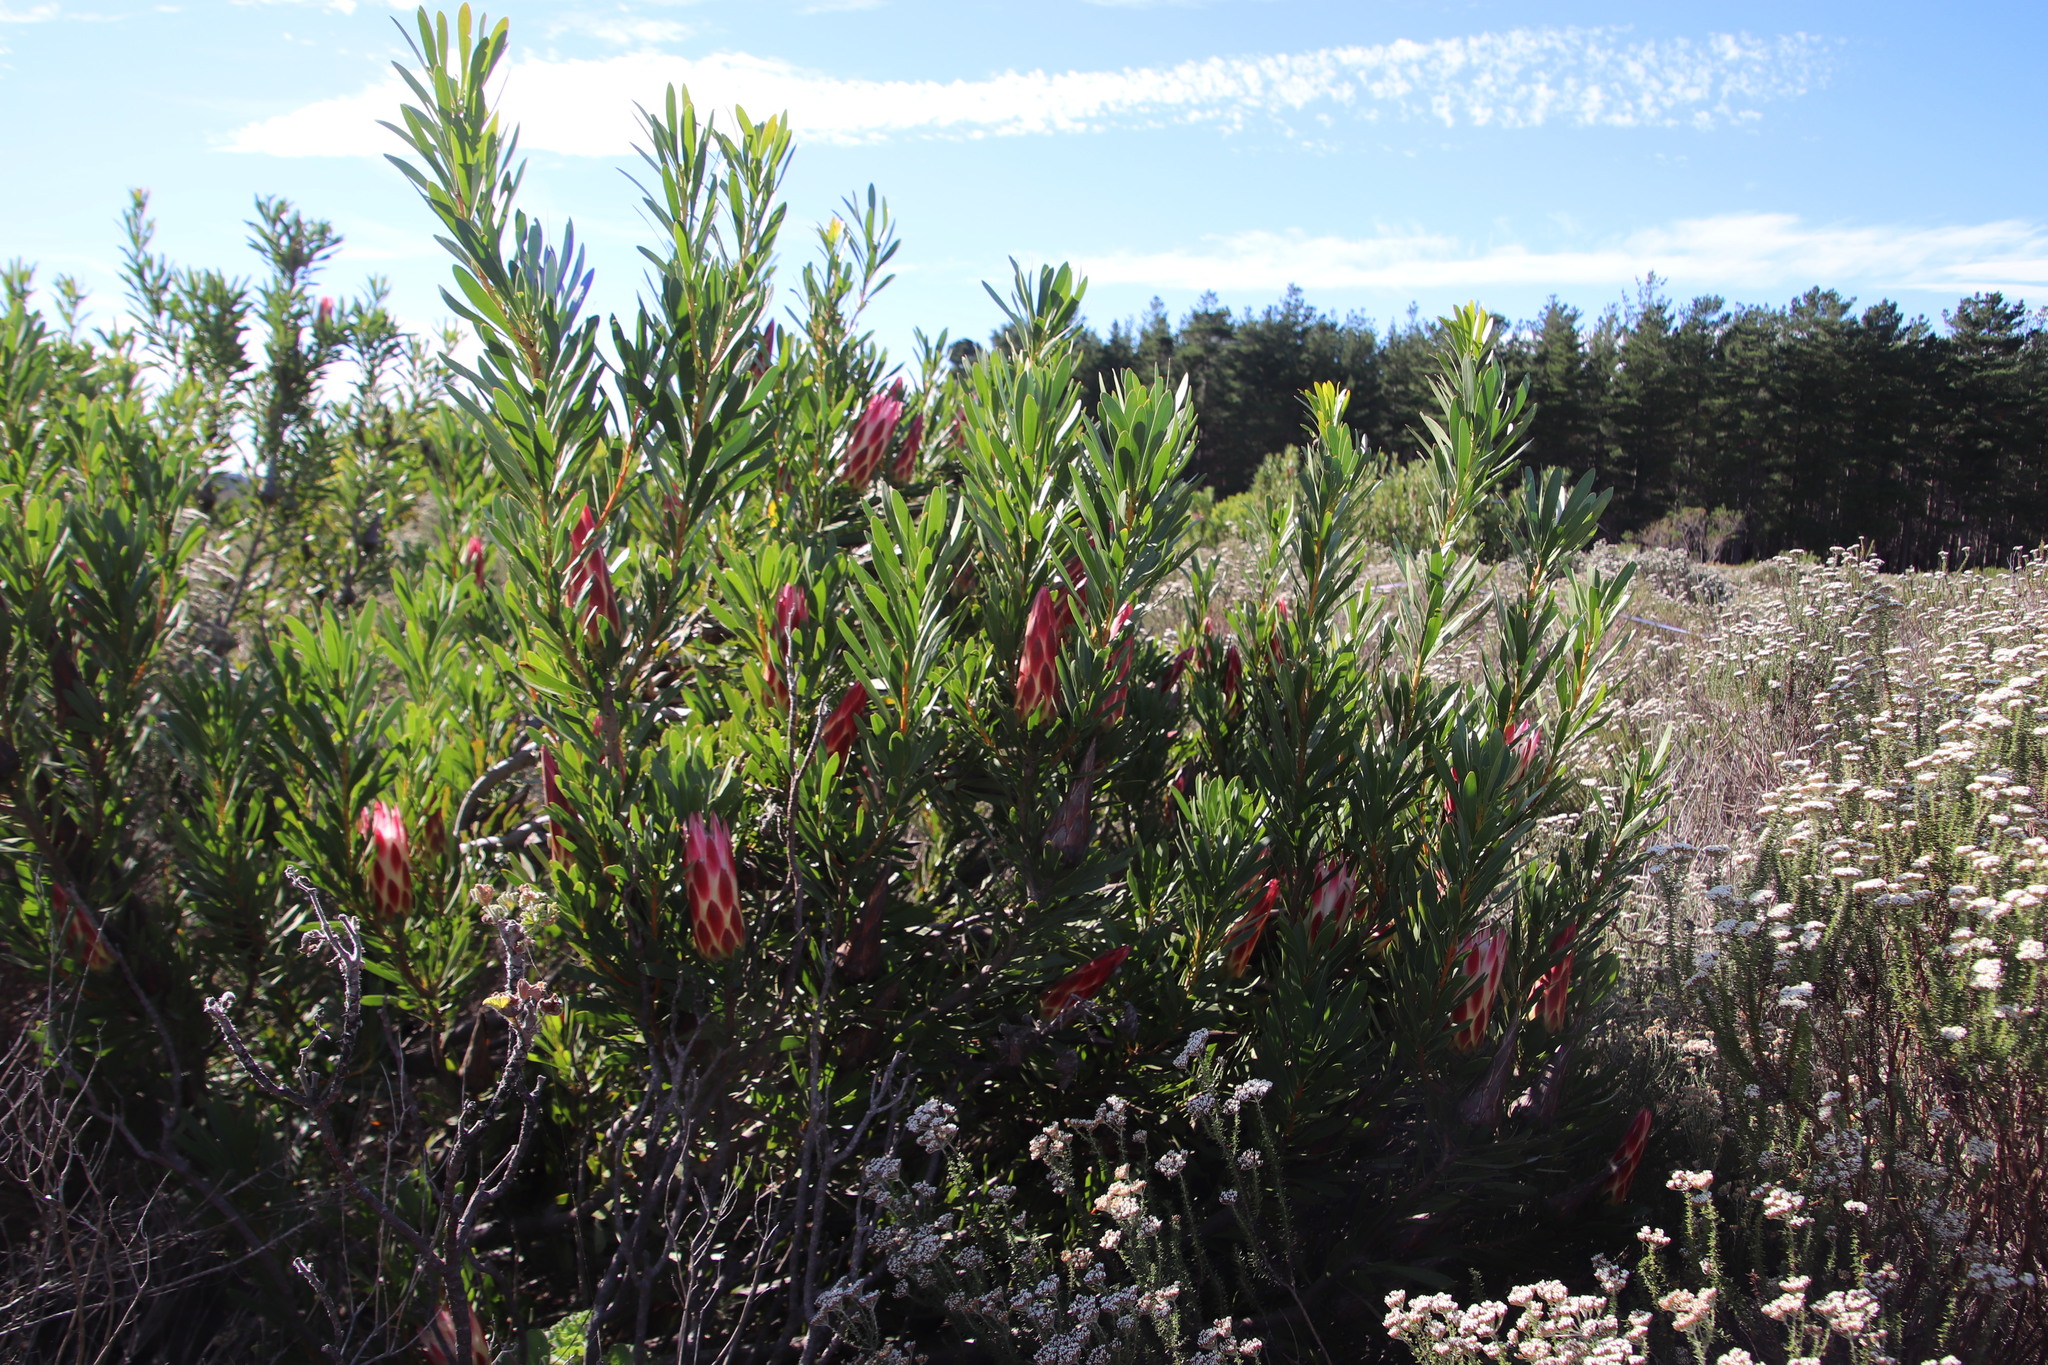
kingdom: Plantae
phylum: Tracheophyta
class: Magnoliopsida
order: Proteales
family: Proteaceae
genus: Protea
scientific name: Protea repens
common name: Sugarbush
